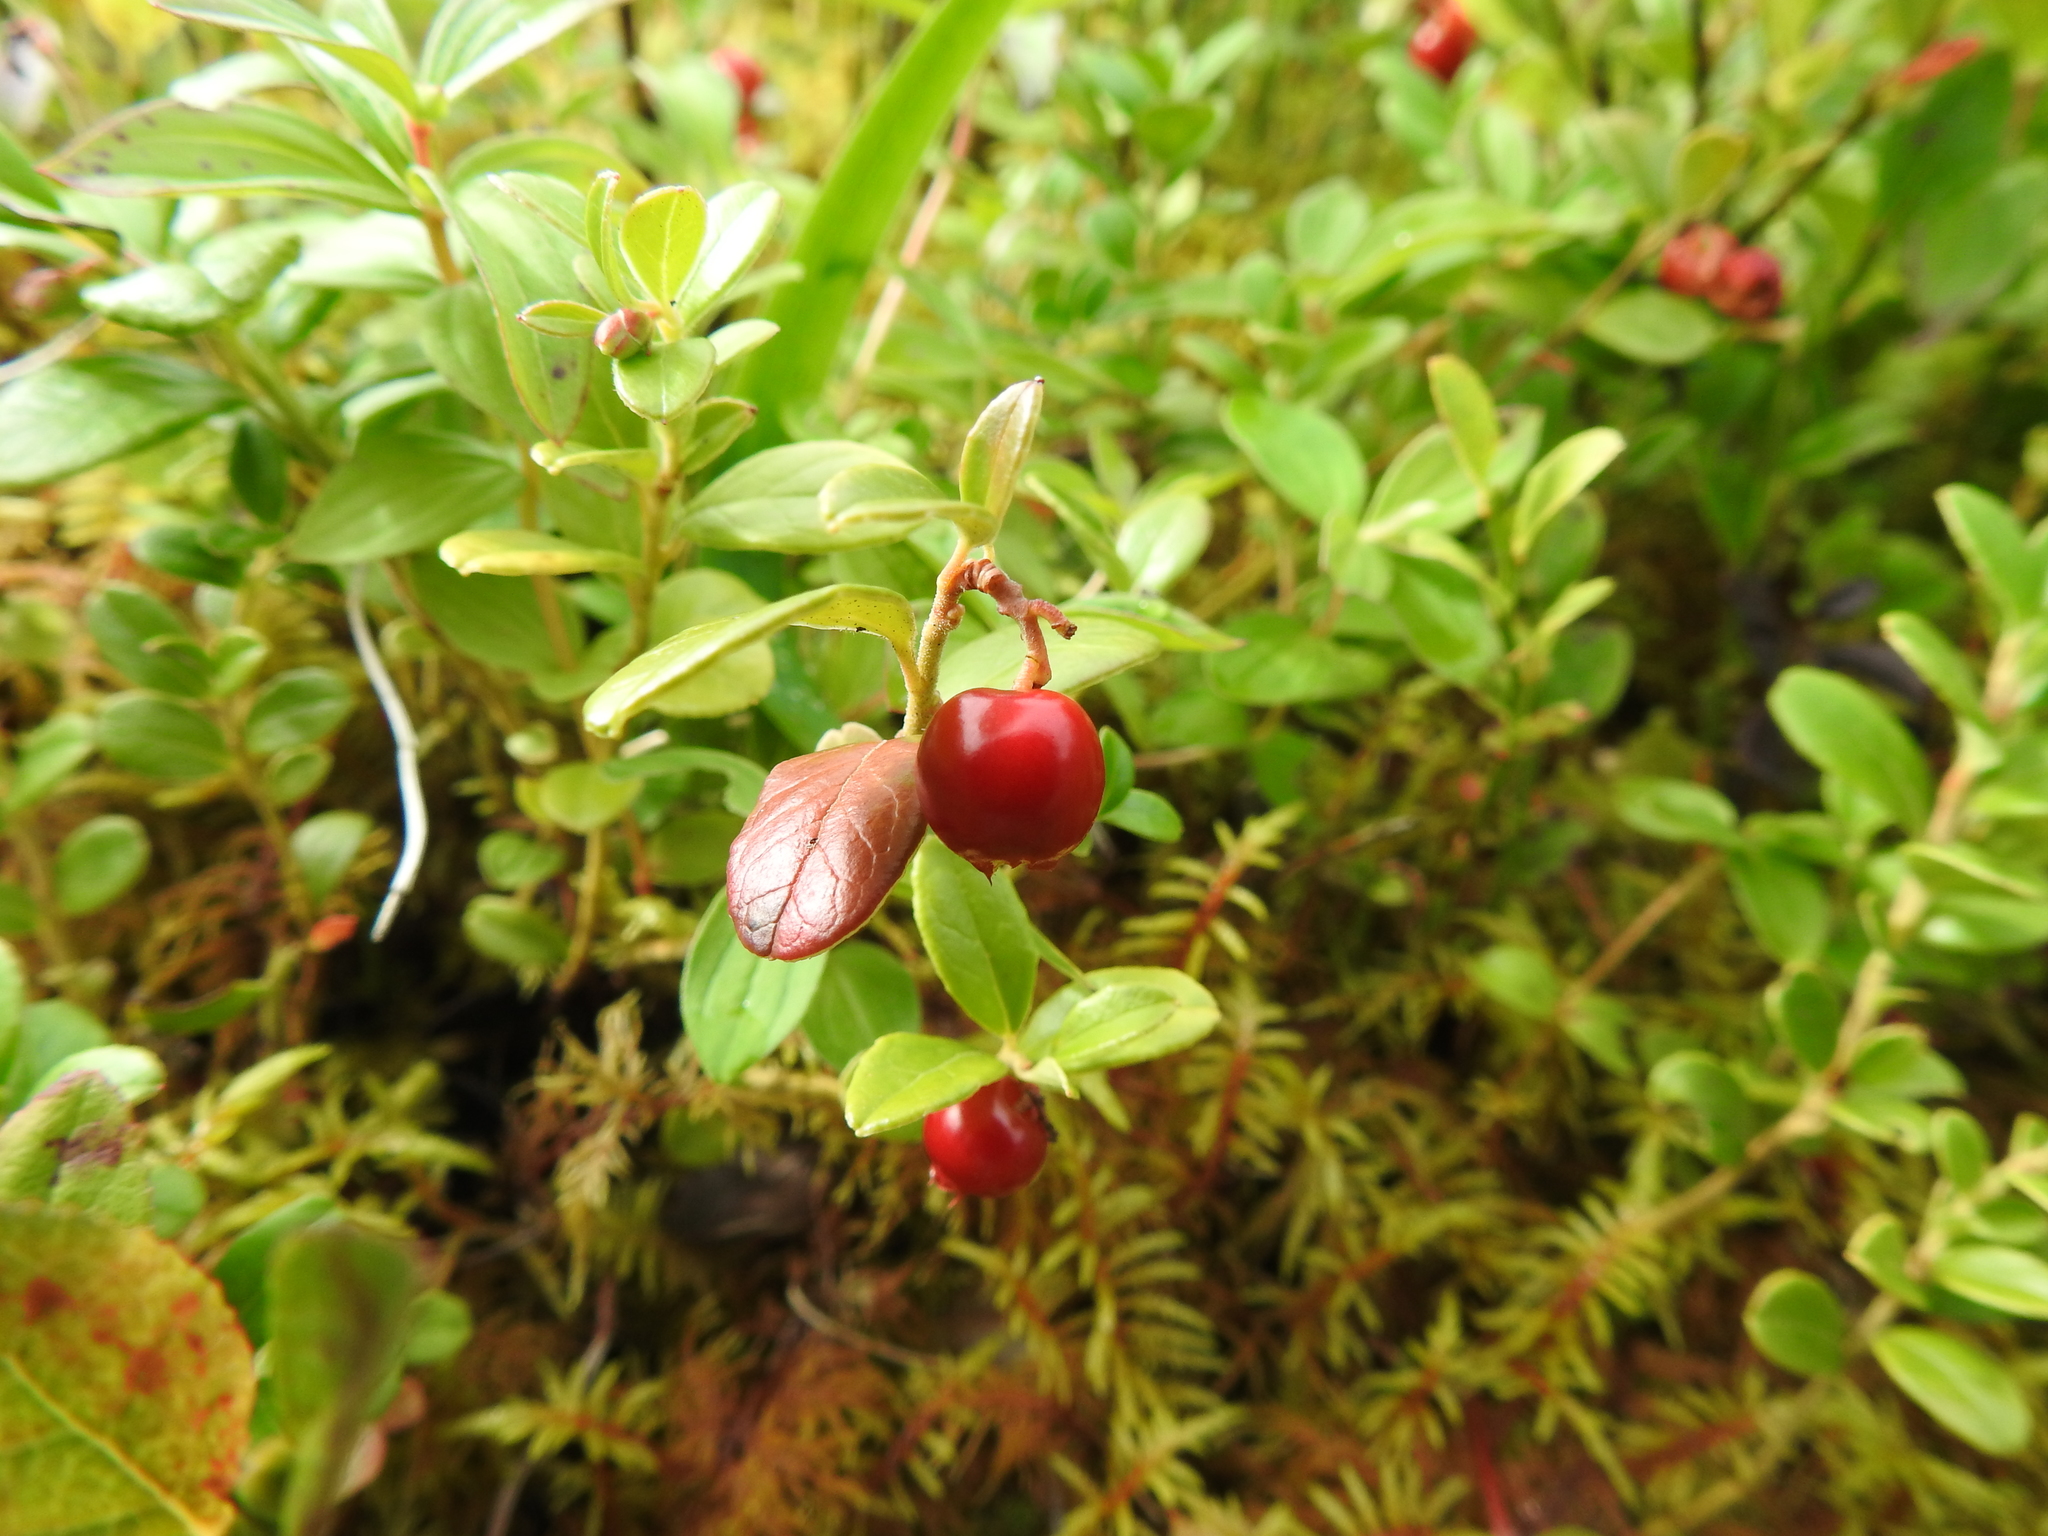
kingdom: Plantae
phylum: Tracheophyta
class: Magnoliopsida
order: Ericales
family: Ericaceae
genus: Vaccinium
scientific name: Vaccinium vitis-idaea
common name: Cowberry
